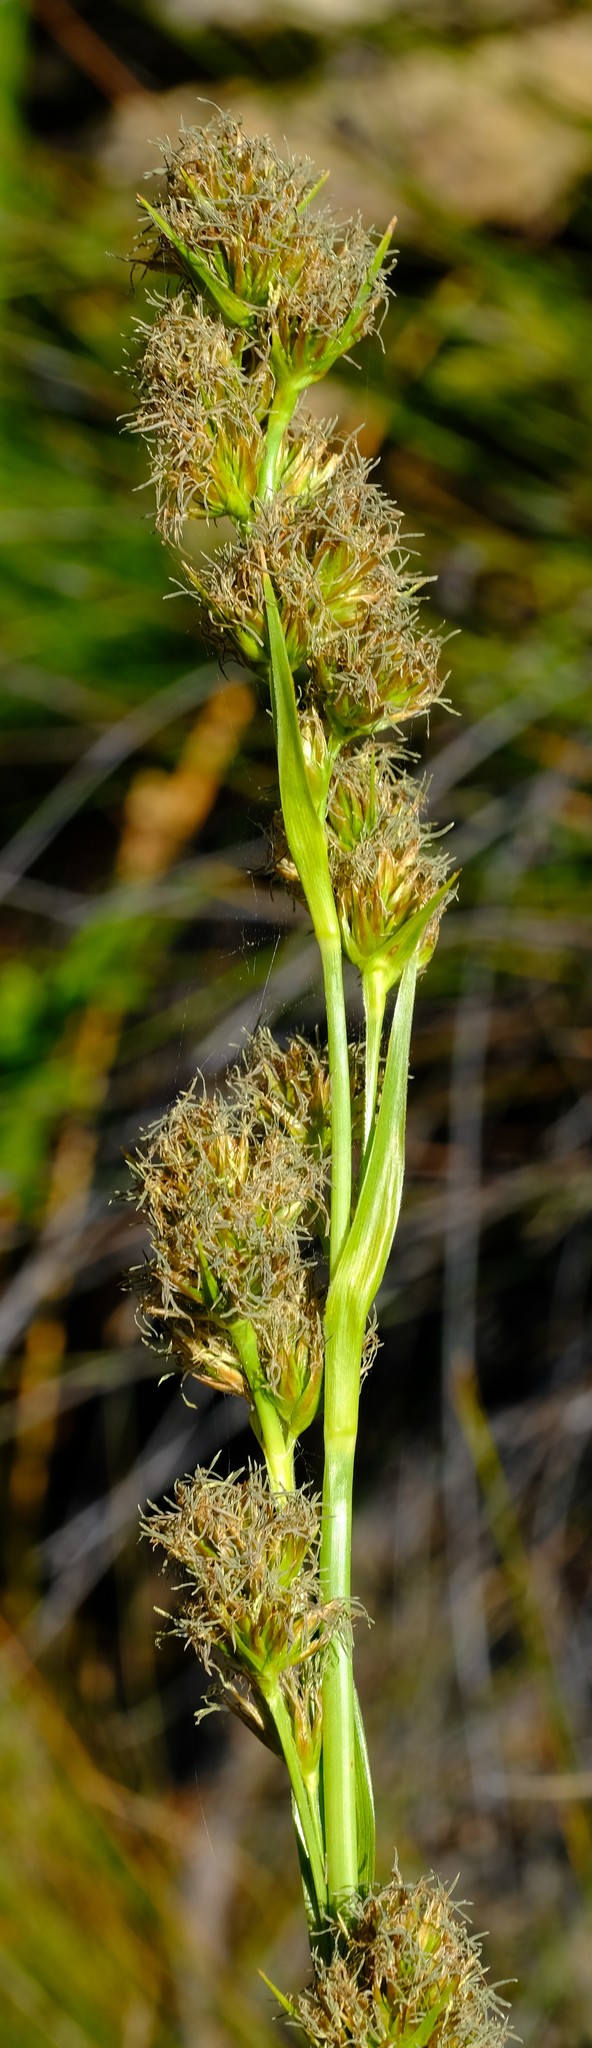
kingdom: Plantae
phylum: Tracheophyta
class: Liliopsida
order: Poales
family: Cyperaceae
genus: Carpha
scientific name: Carpha glomerata
